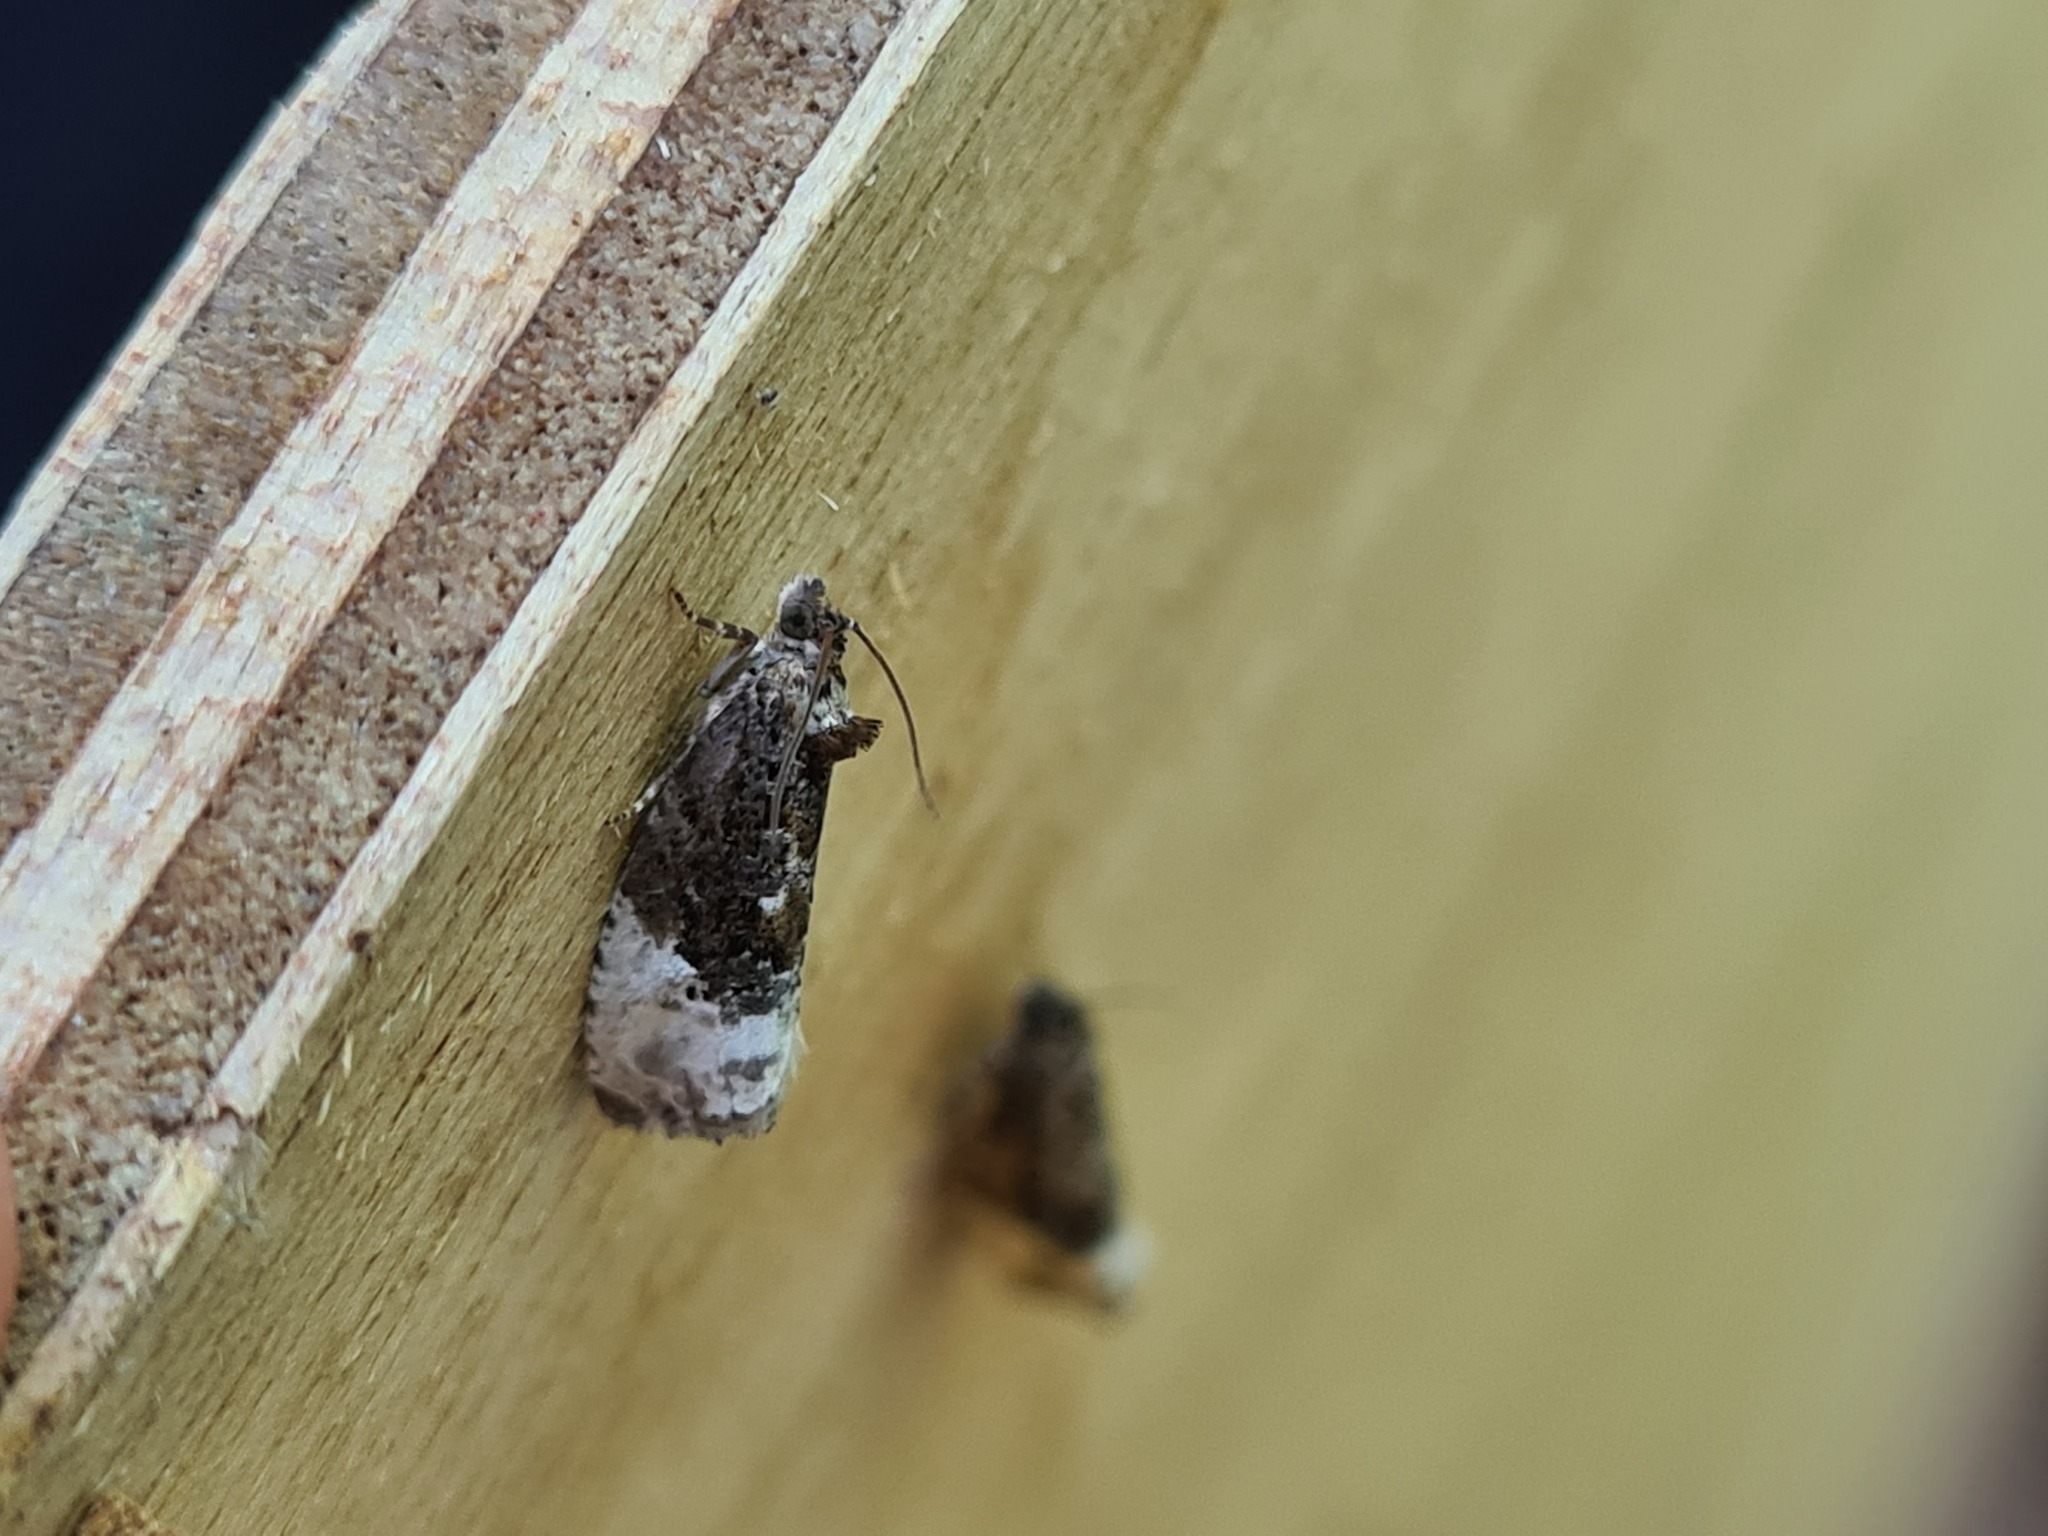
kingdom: Animalia
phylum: Arthropoda
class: Insecta
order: Lepidoptera
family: Tortricidae
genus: Hedya
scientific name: Hedya nubiferana
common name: Marbled orchard tortrix
